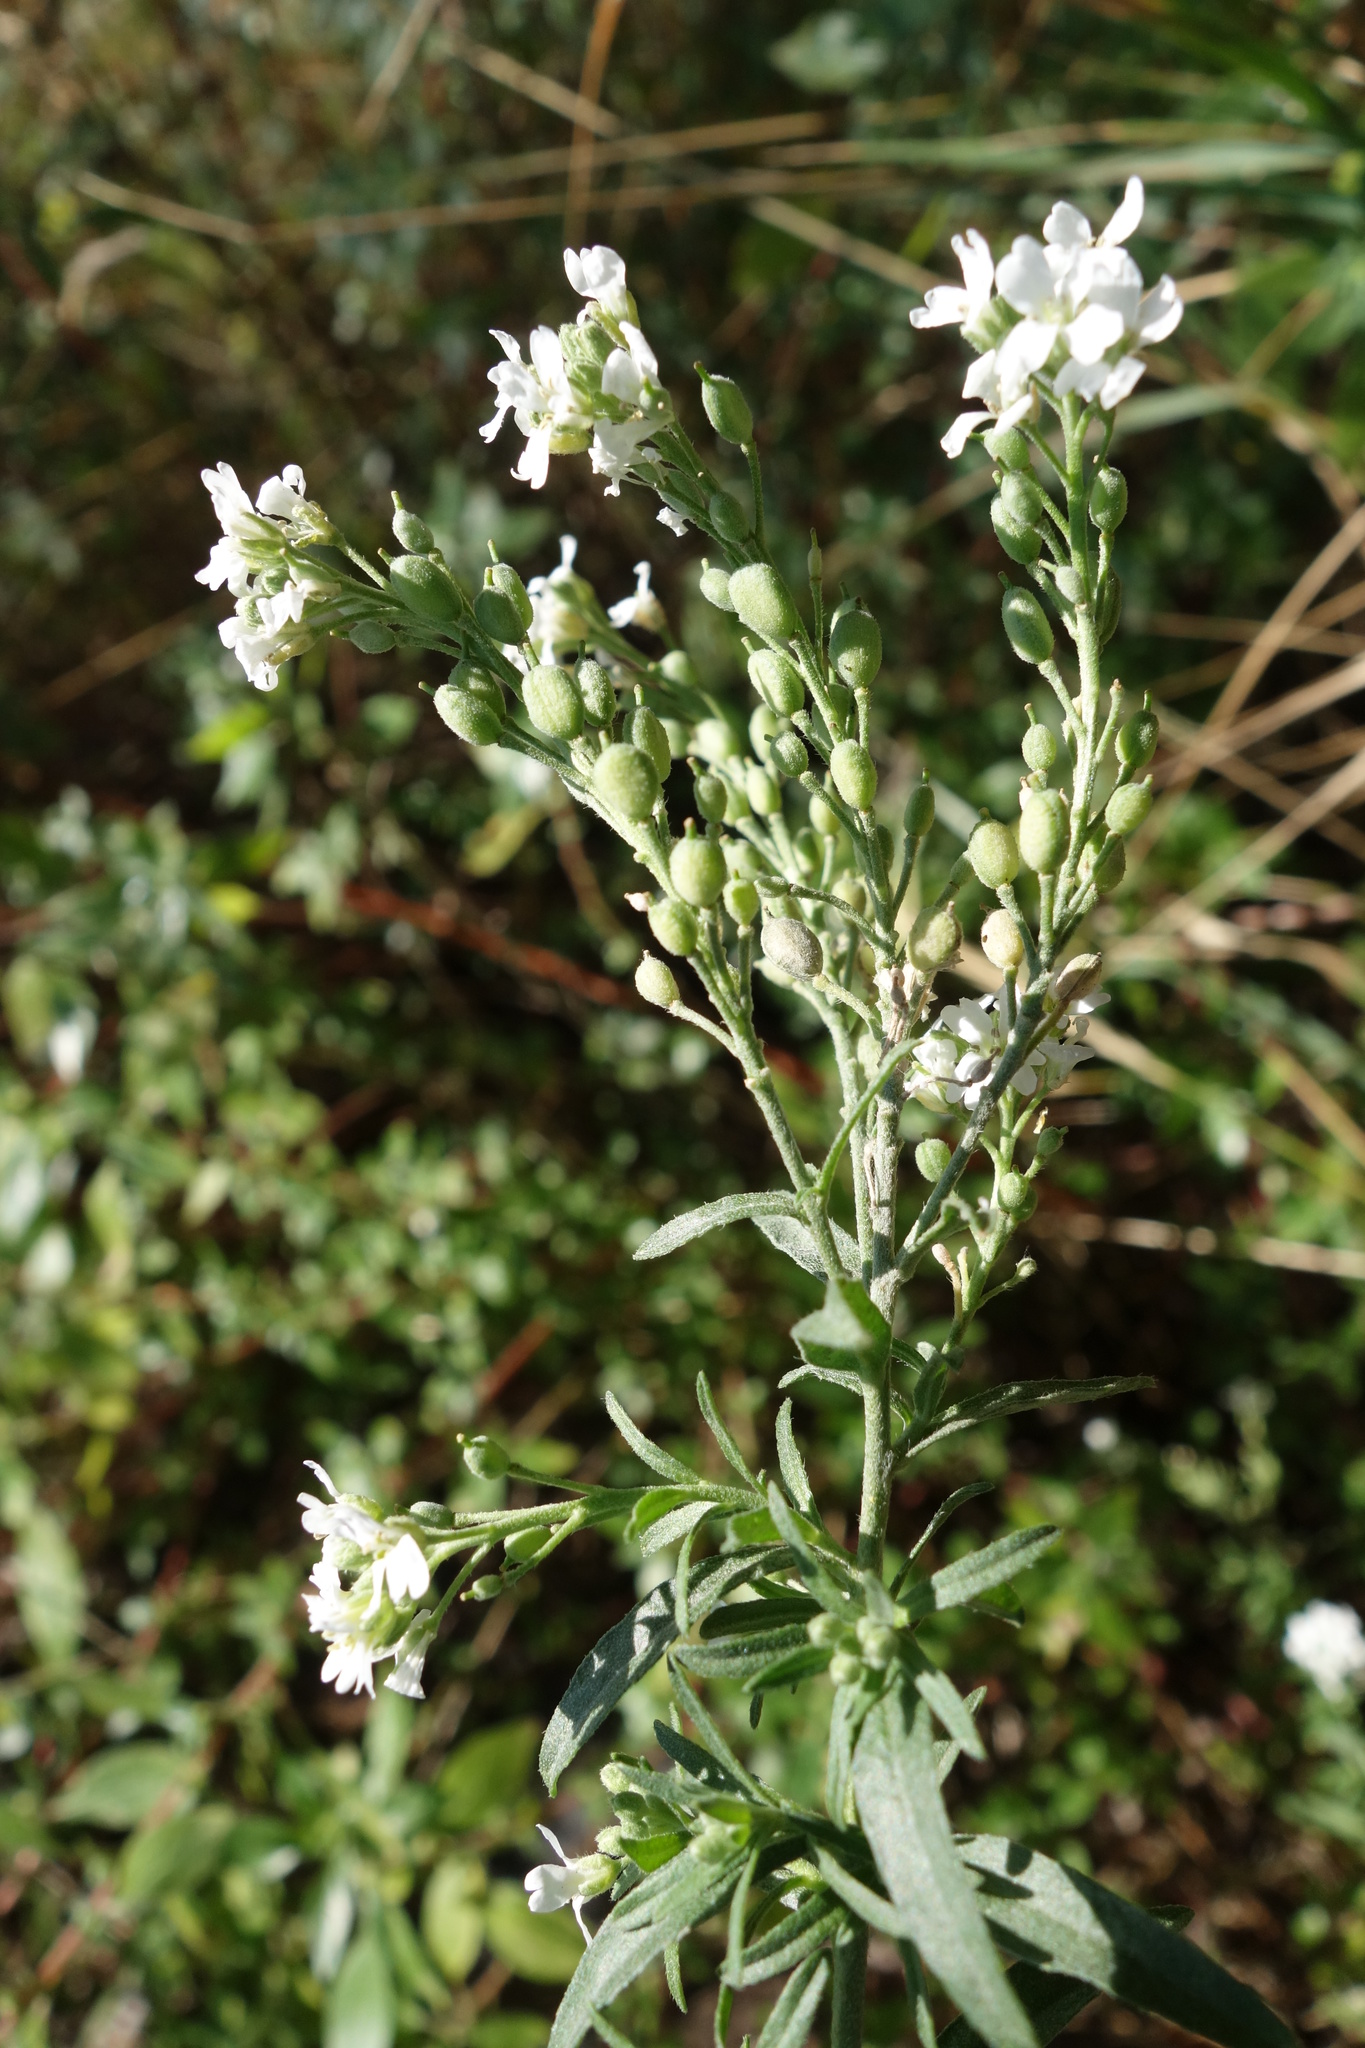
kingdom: Plantae
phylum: Tracheophyta
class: Magnoliopsida
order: Brassicales
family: Brassicaceae
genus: Berteroa
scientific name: Berteroa incana
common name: Hoary alison
